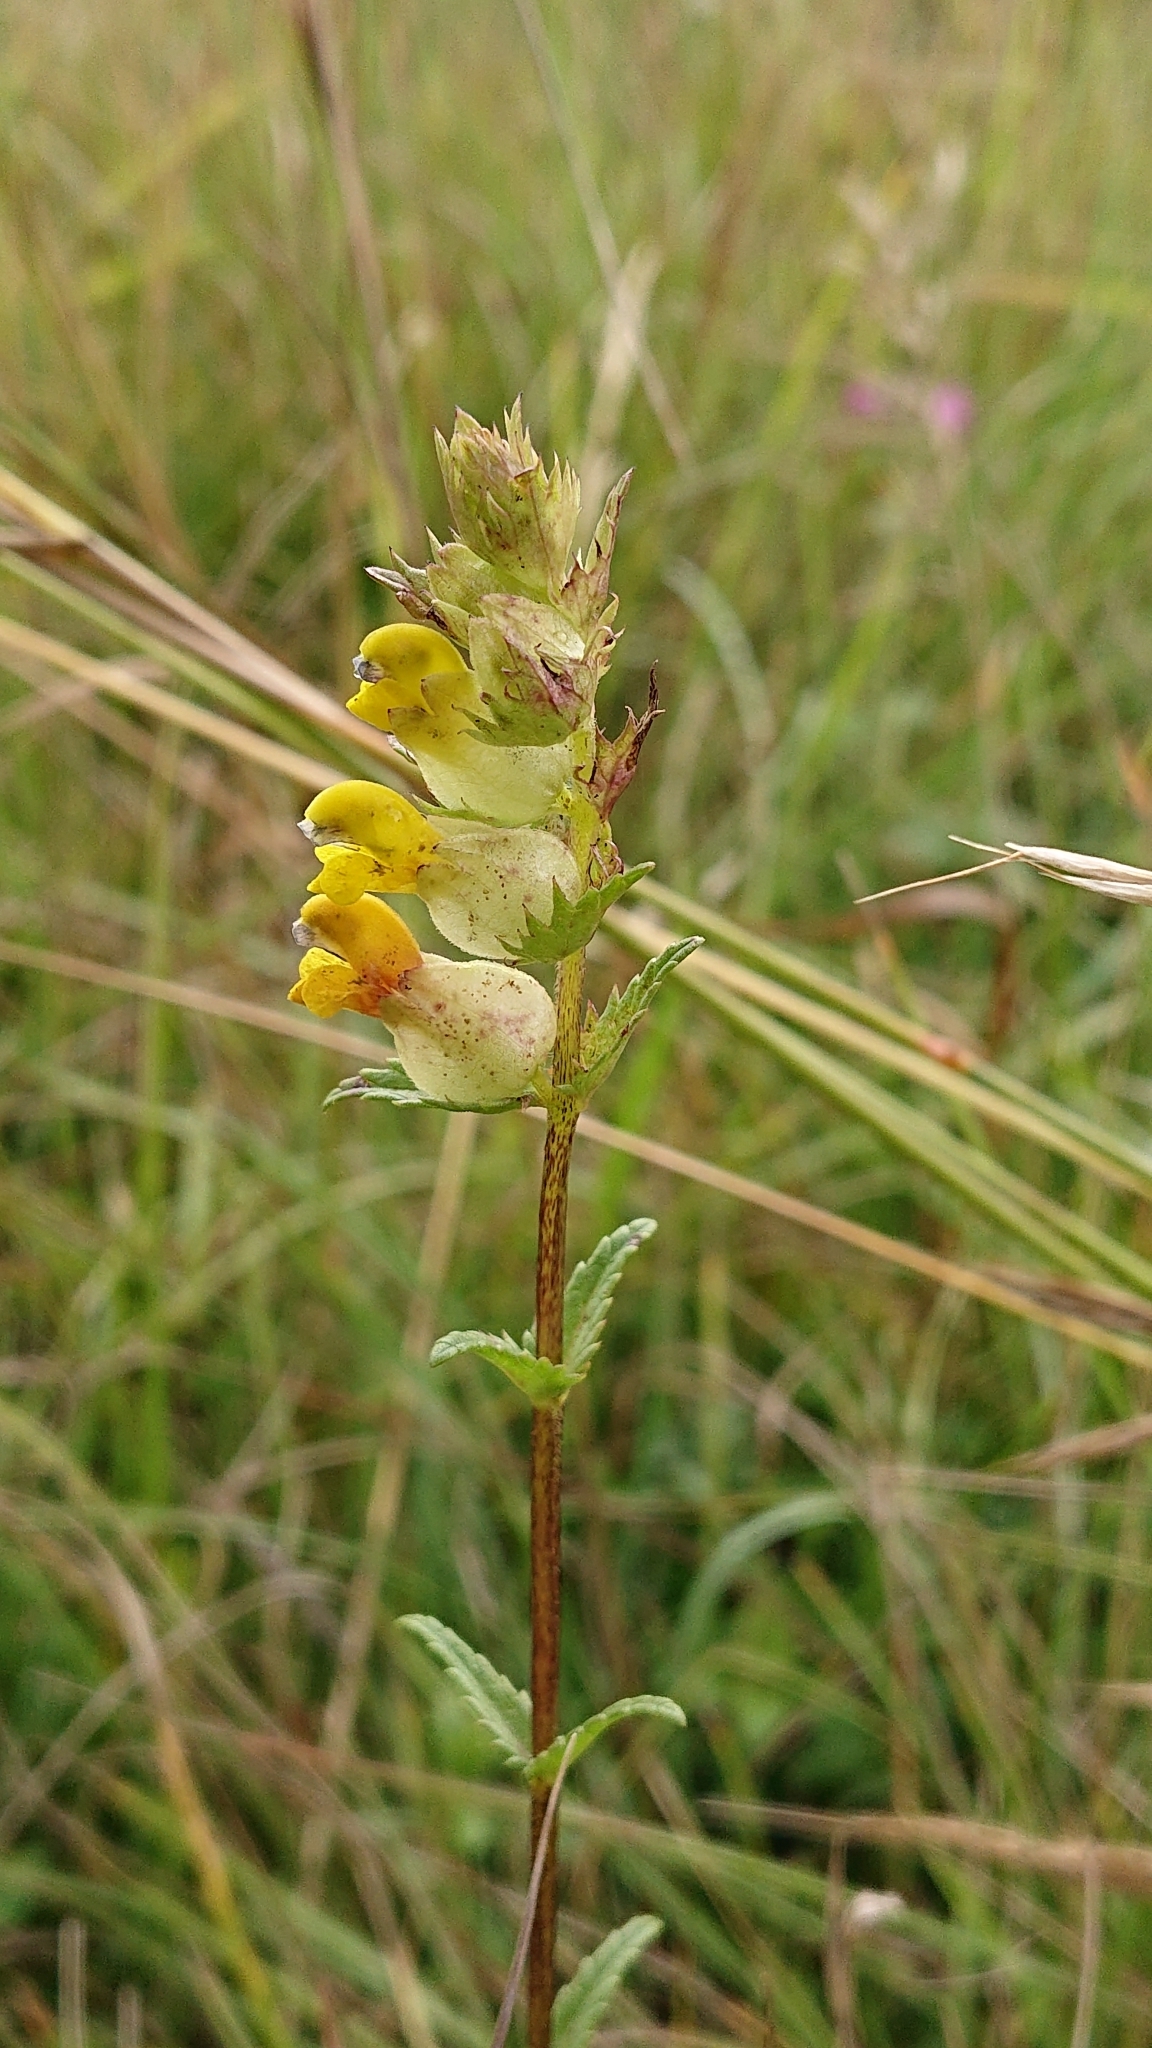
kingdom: Plantae
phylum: Tracheophyta
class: Magnoliopsida
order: Lamiales
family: Orobanchaceae
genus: Rhinanthus
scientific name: Rhinanthus minor
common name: Yellow-rattle
